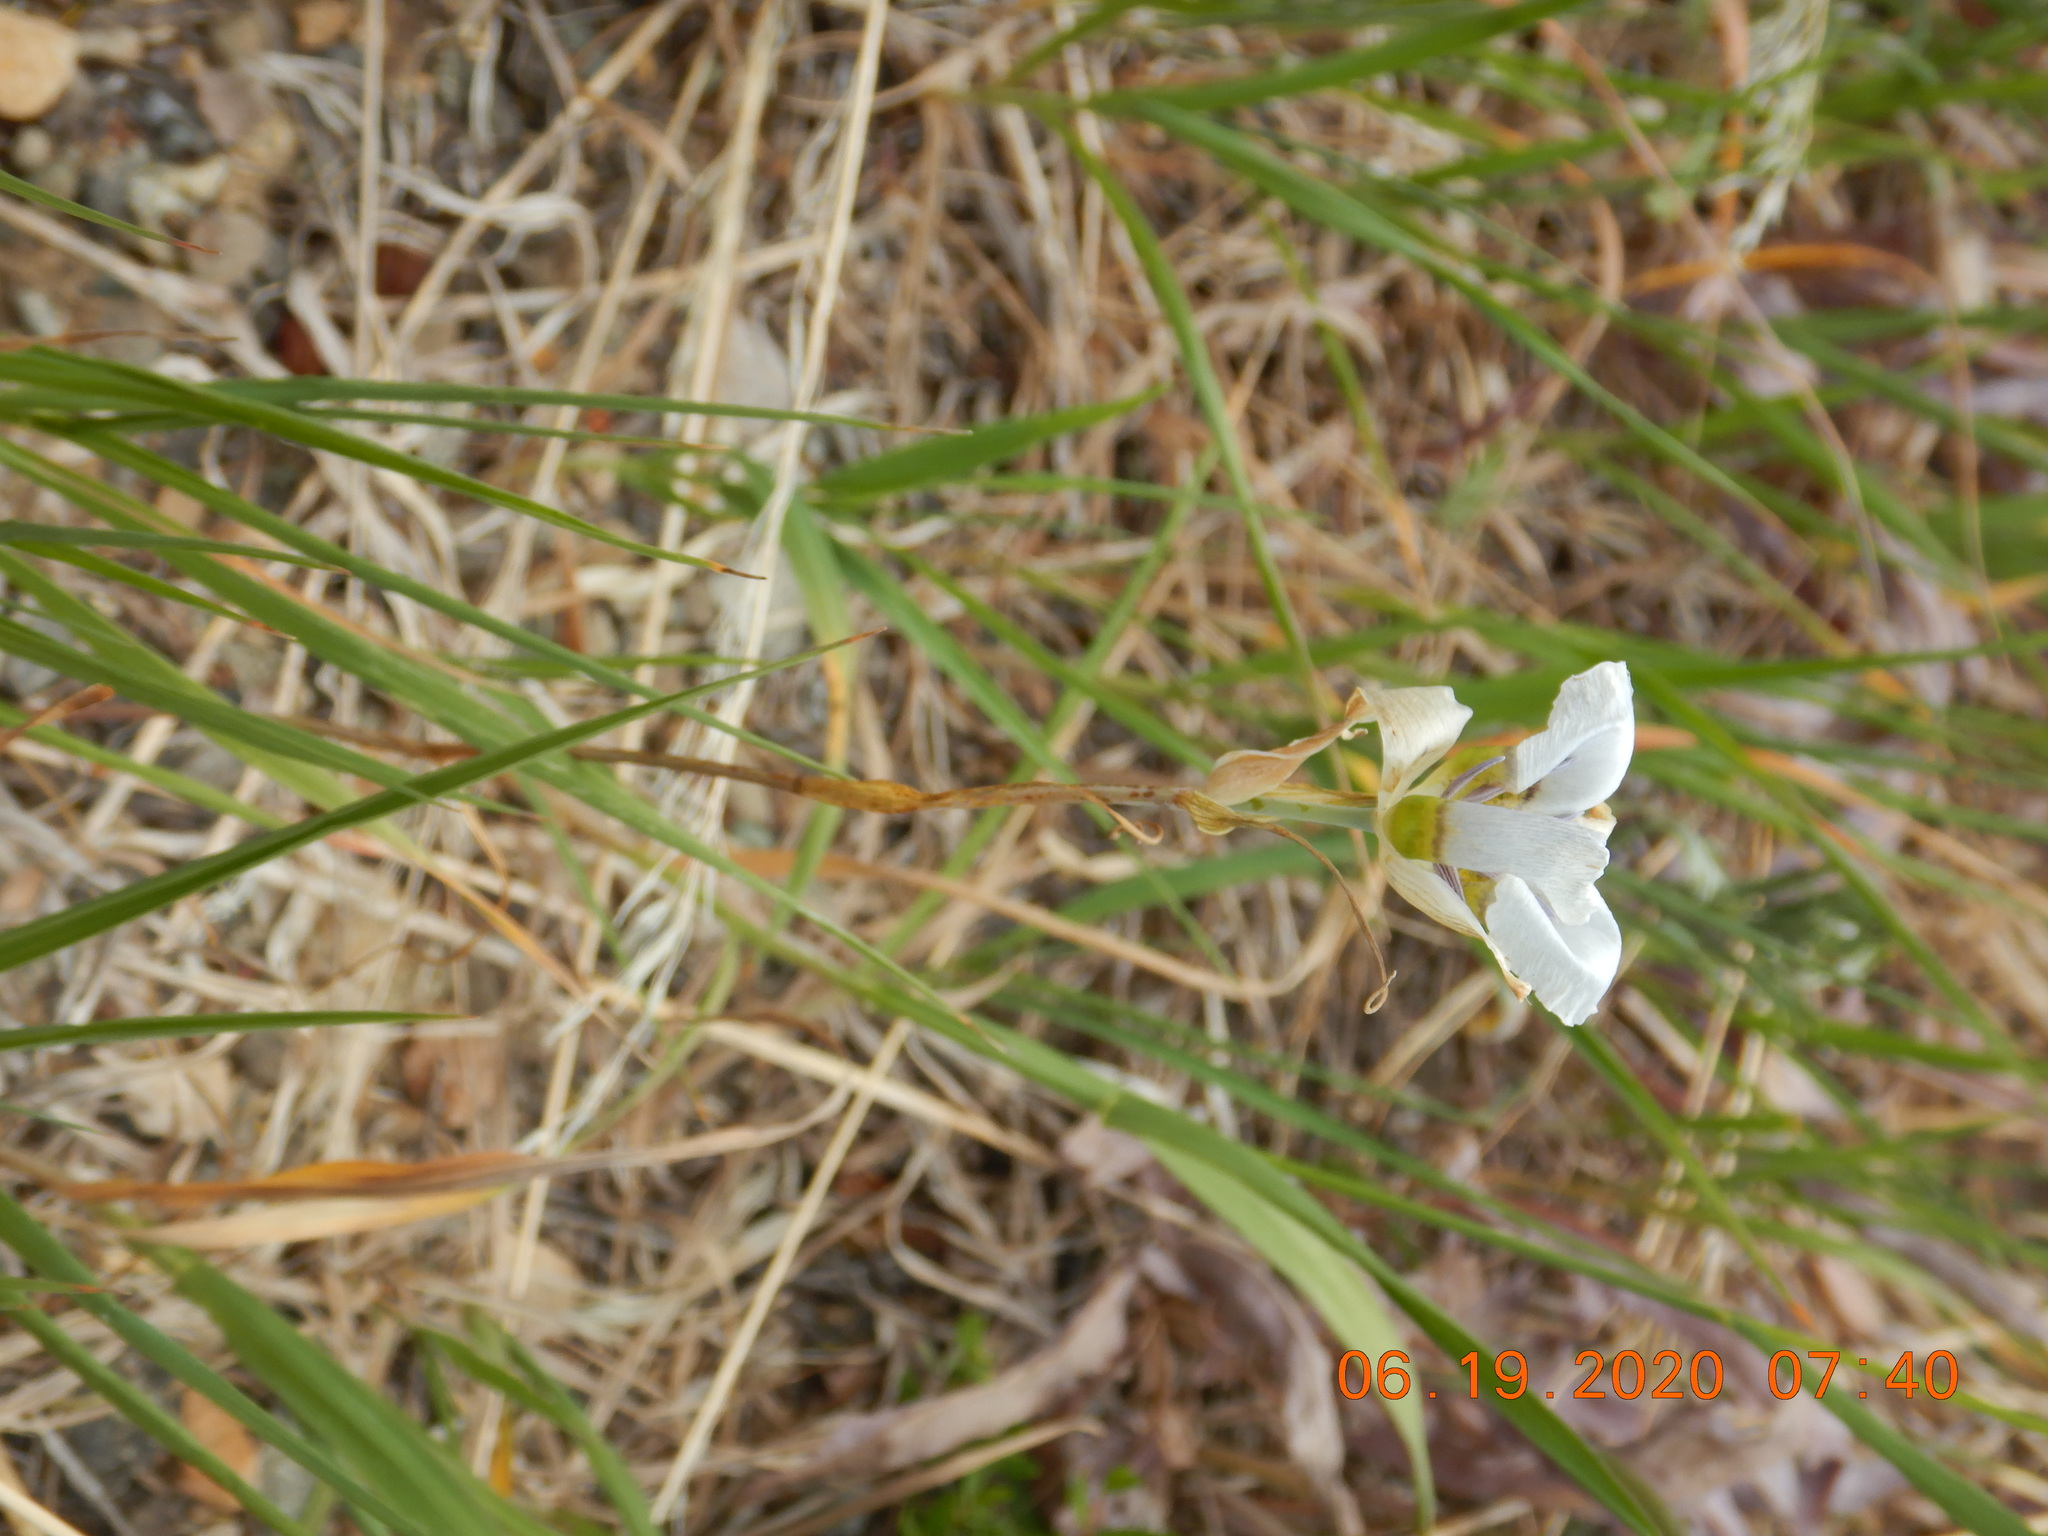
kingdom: Plantae
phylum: Tracheophyta
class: Liliopsida
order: Liliales
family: Liliaceae
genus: Calochortus
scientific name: Calochortus gunnisonii
